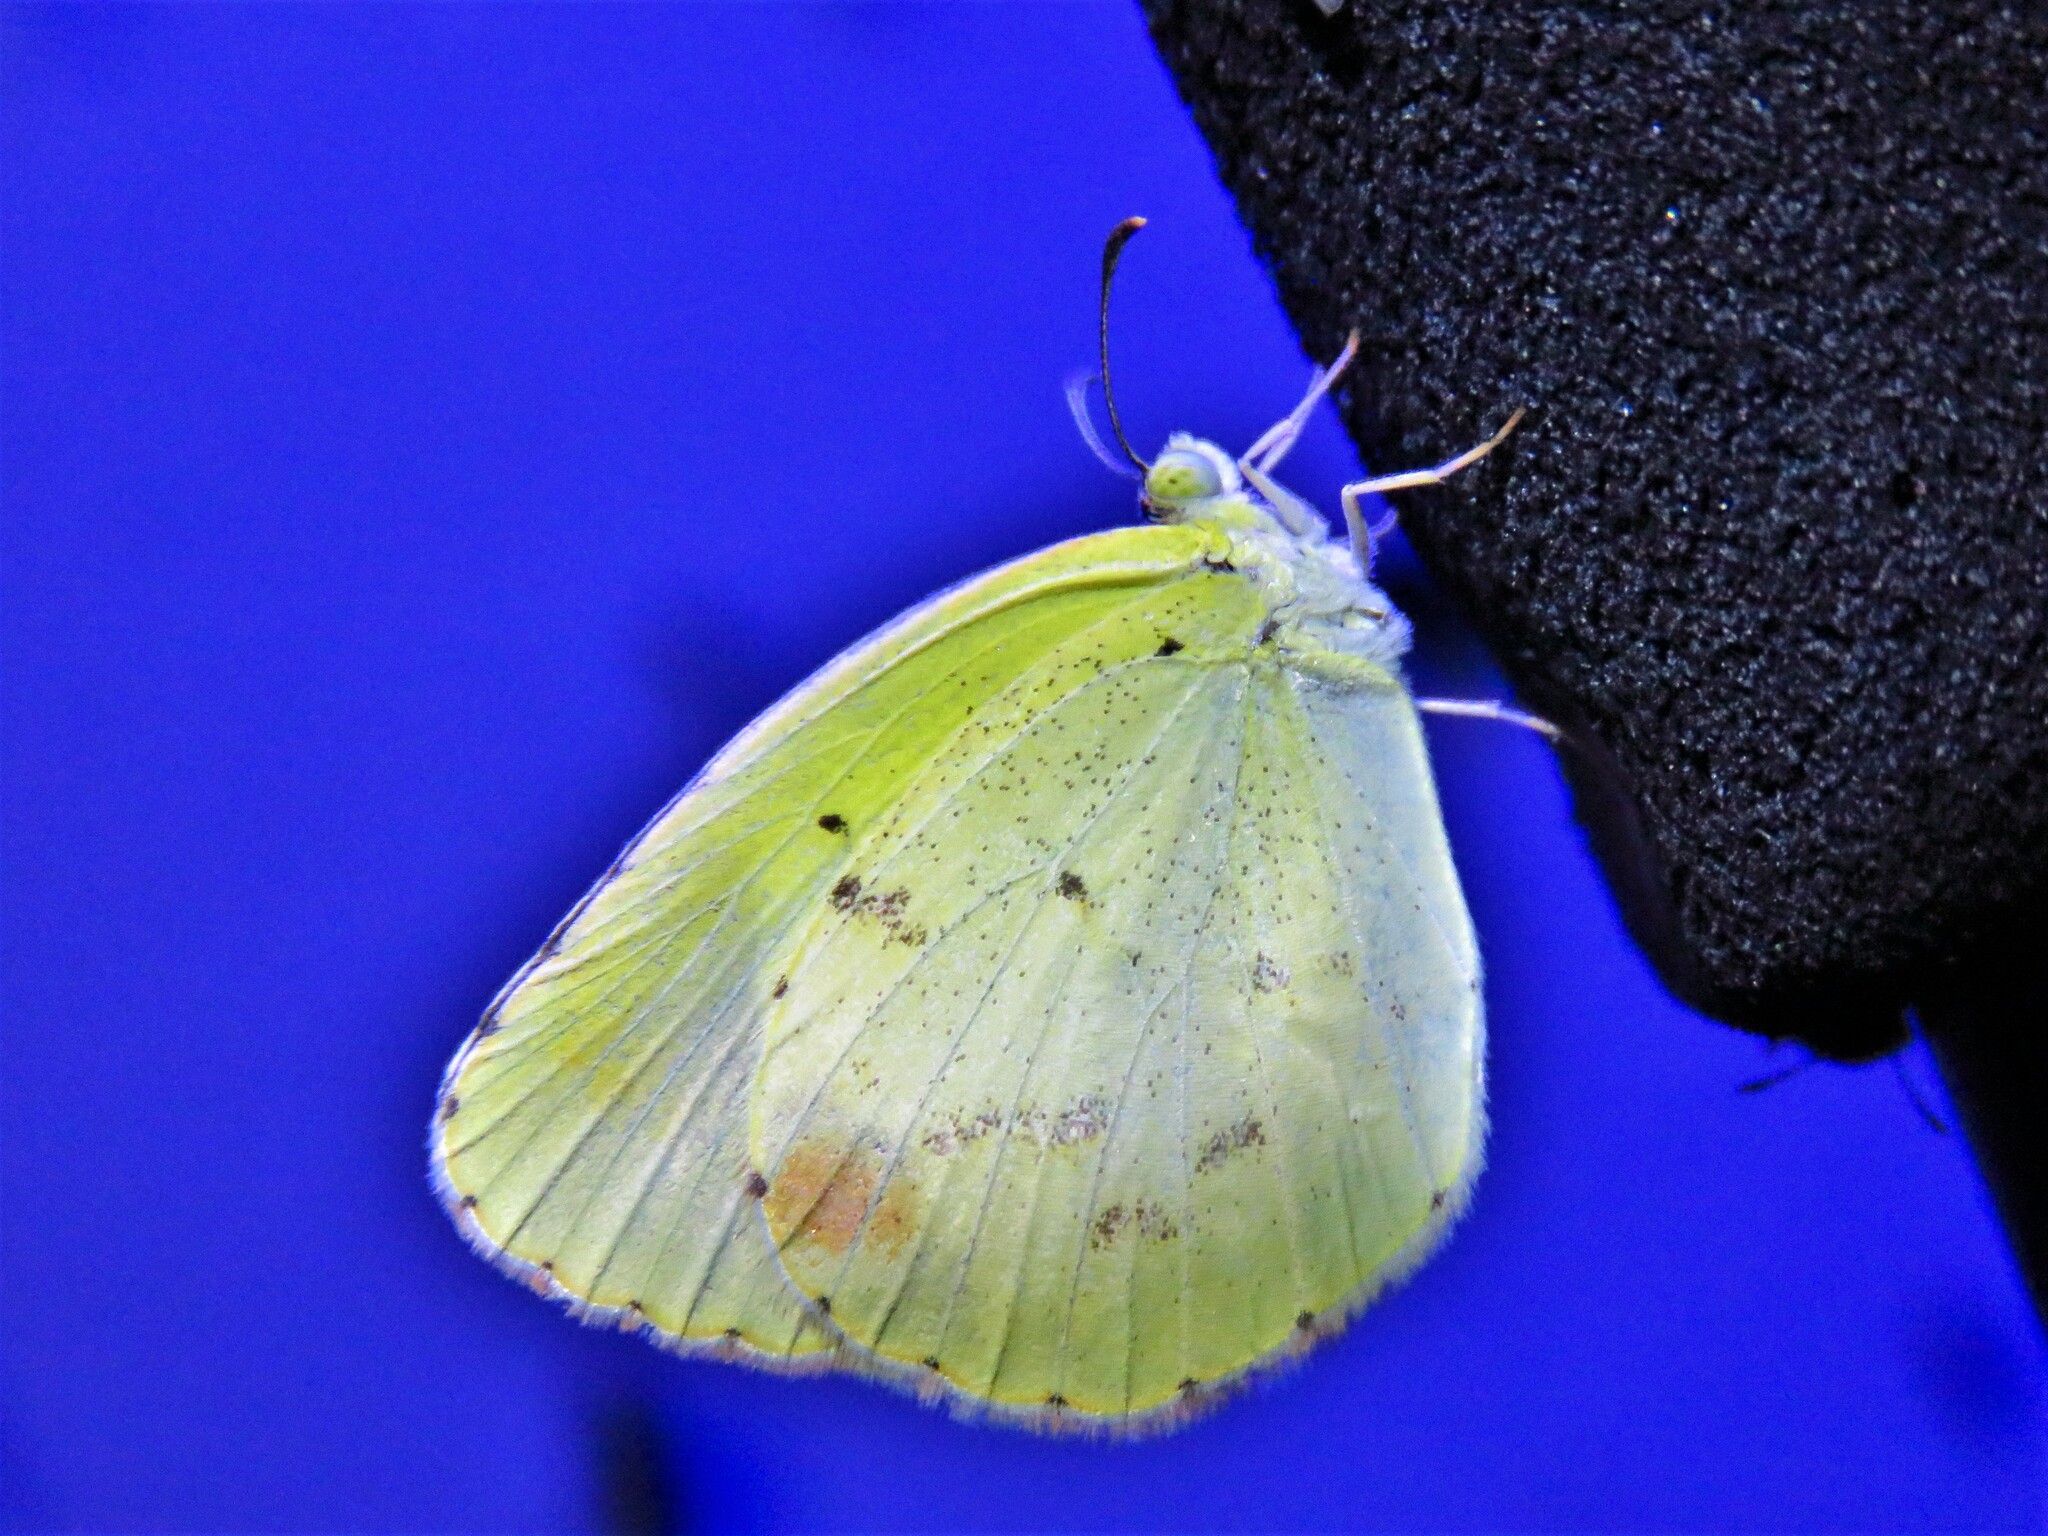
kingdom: Animalia
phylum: Arthropoda
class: Insecta
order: Lepidoptera
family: Pieridae
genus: Pyrisitia
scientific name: Pyrisitia lisa
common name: Little yellow
